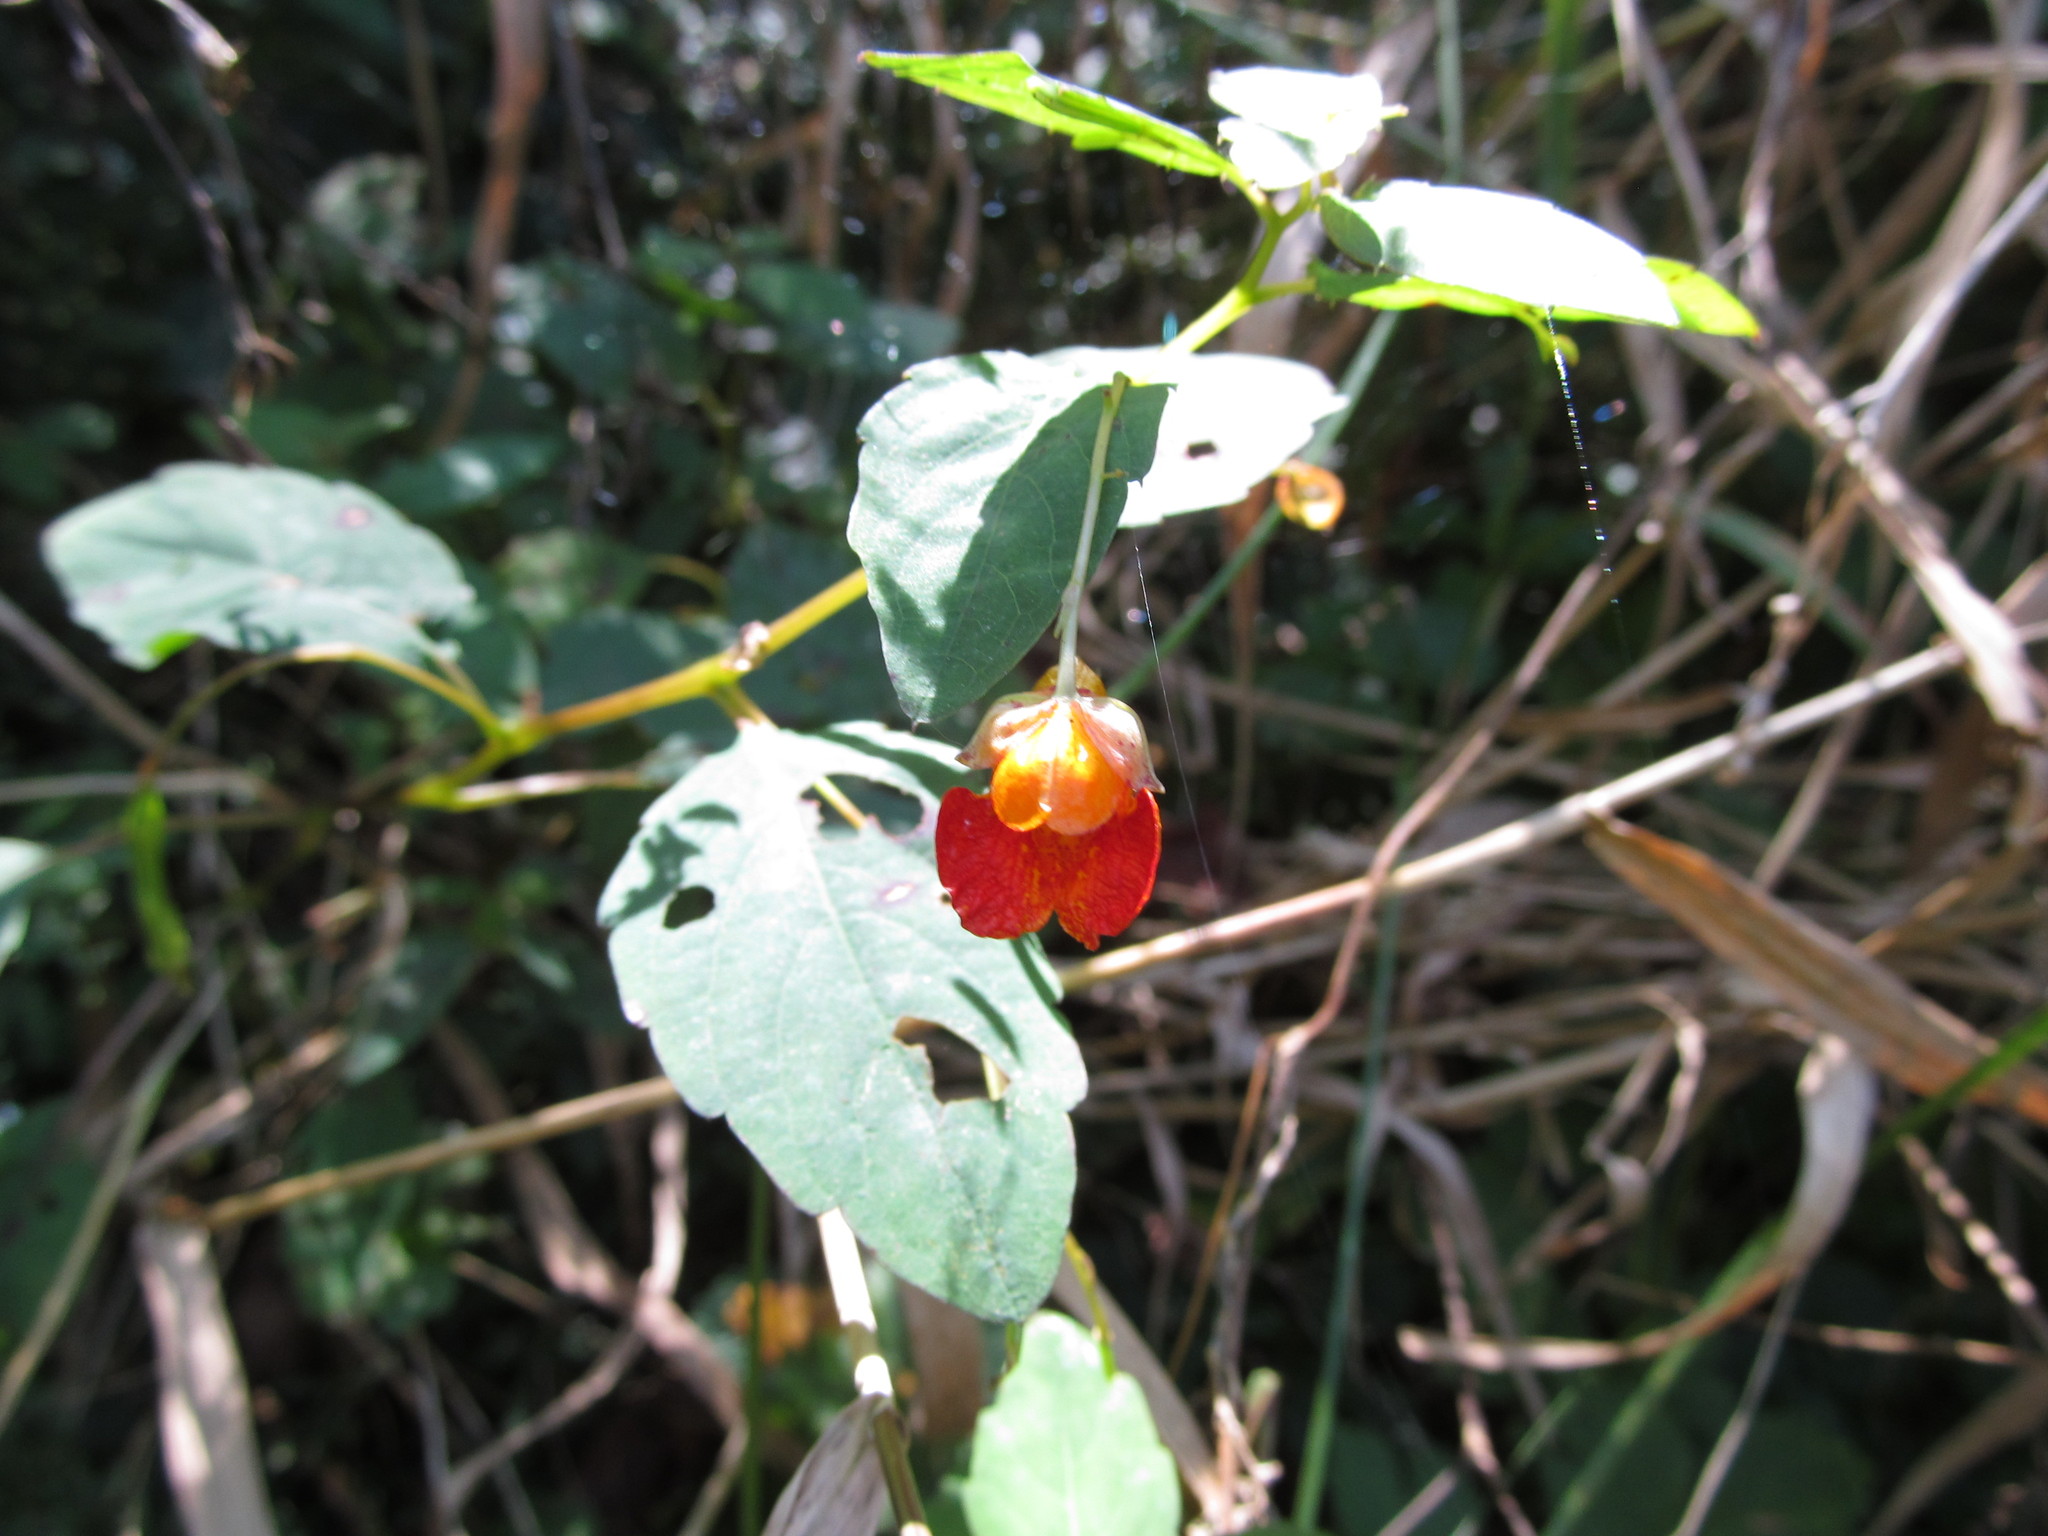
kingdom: Plantae
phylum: Tracheophyta
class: Magnoliopsida
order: Ericales
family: Balsaminaceae
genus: Impatiens
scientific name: Impatiens capensis
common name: Orange balsam
